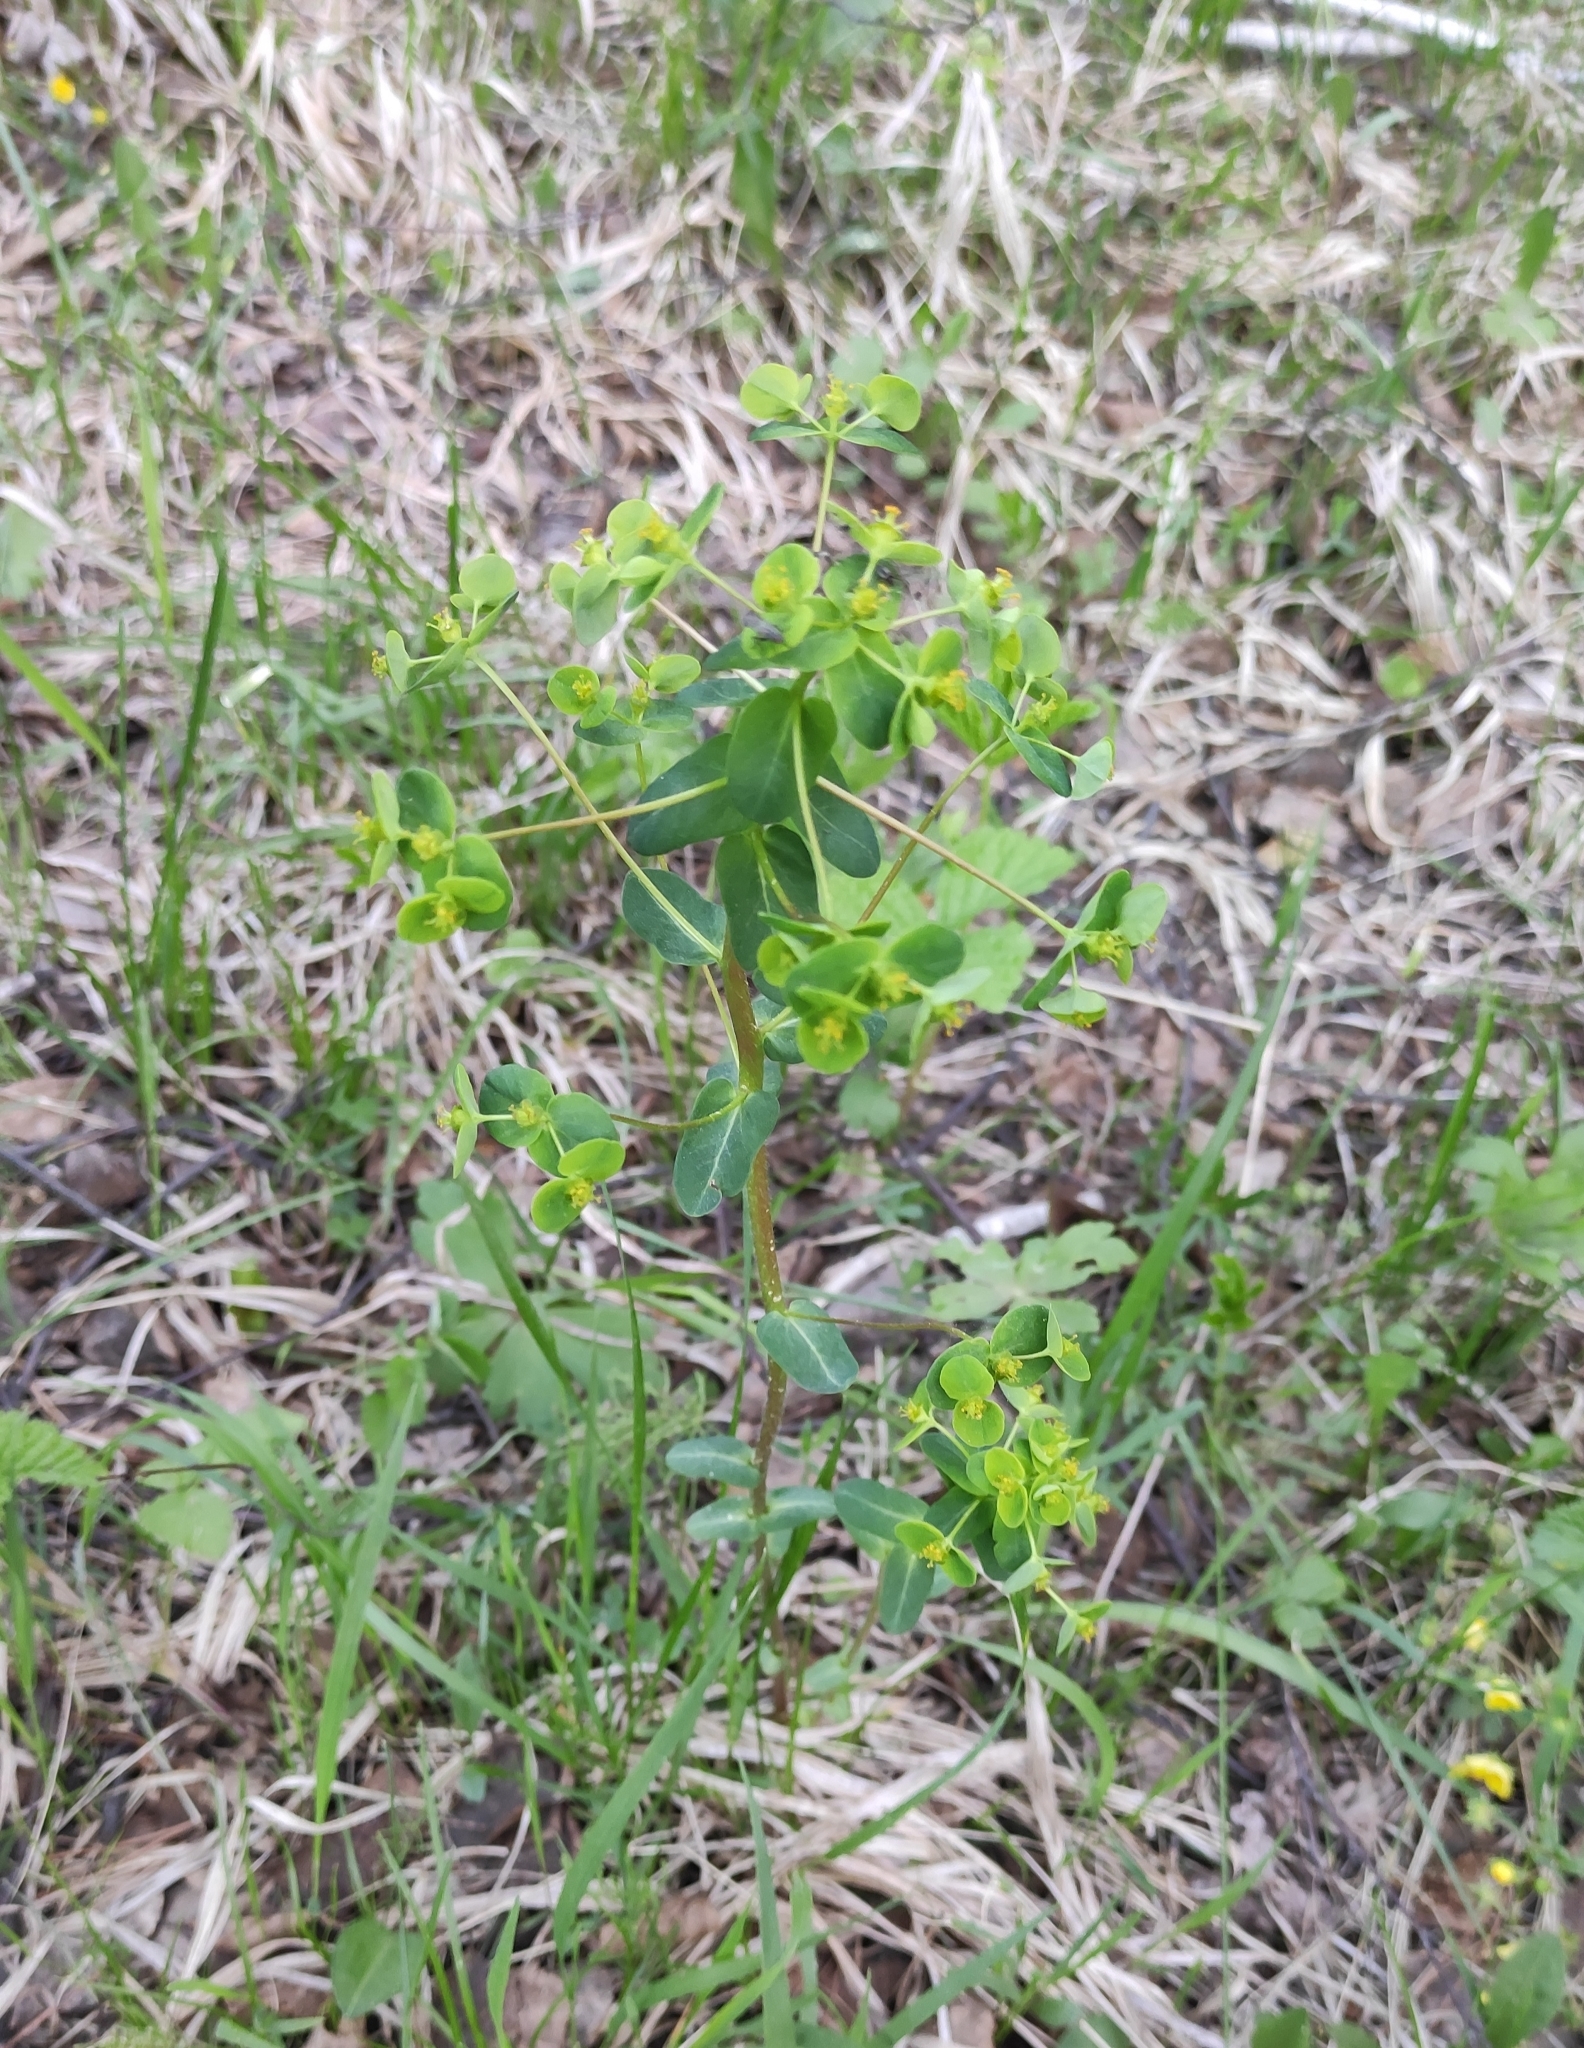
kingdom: Plantae
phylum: Tracheophyta
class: Magnoliopsida
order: Malpighiales
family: Euphorbiaceae
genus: Euphorbia
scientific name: Euphorbia jenisseiensis
